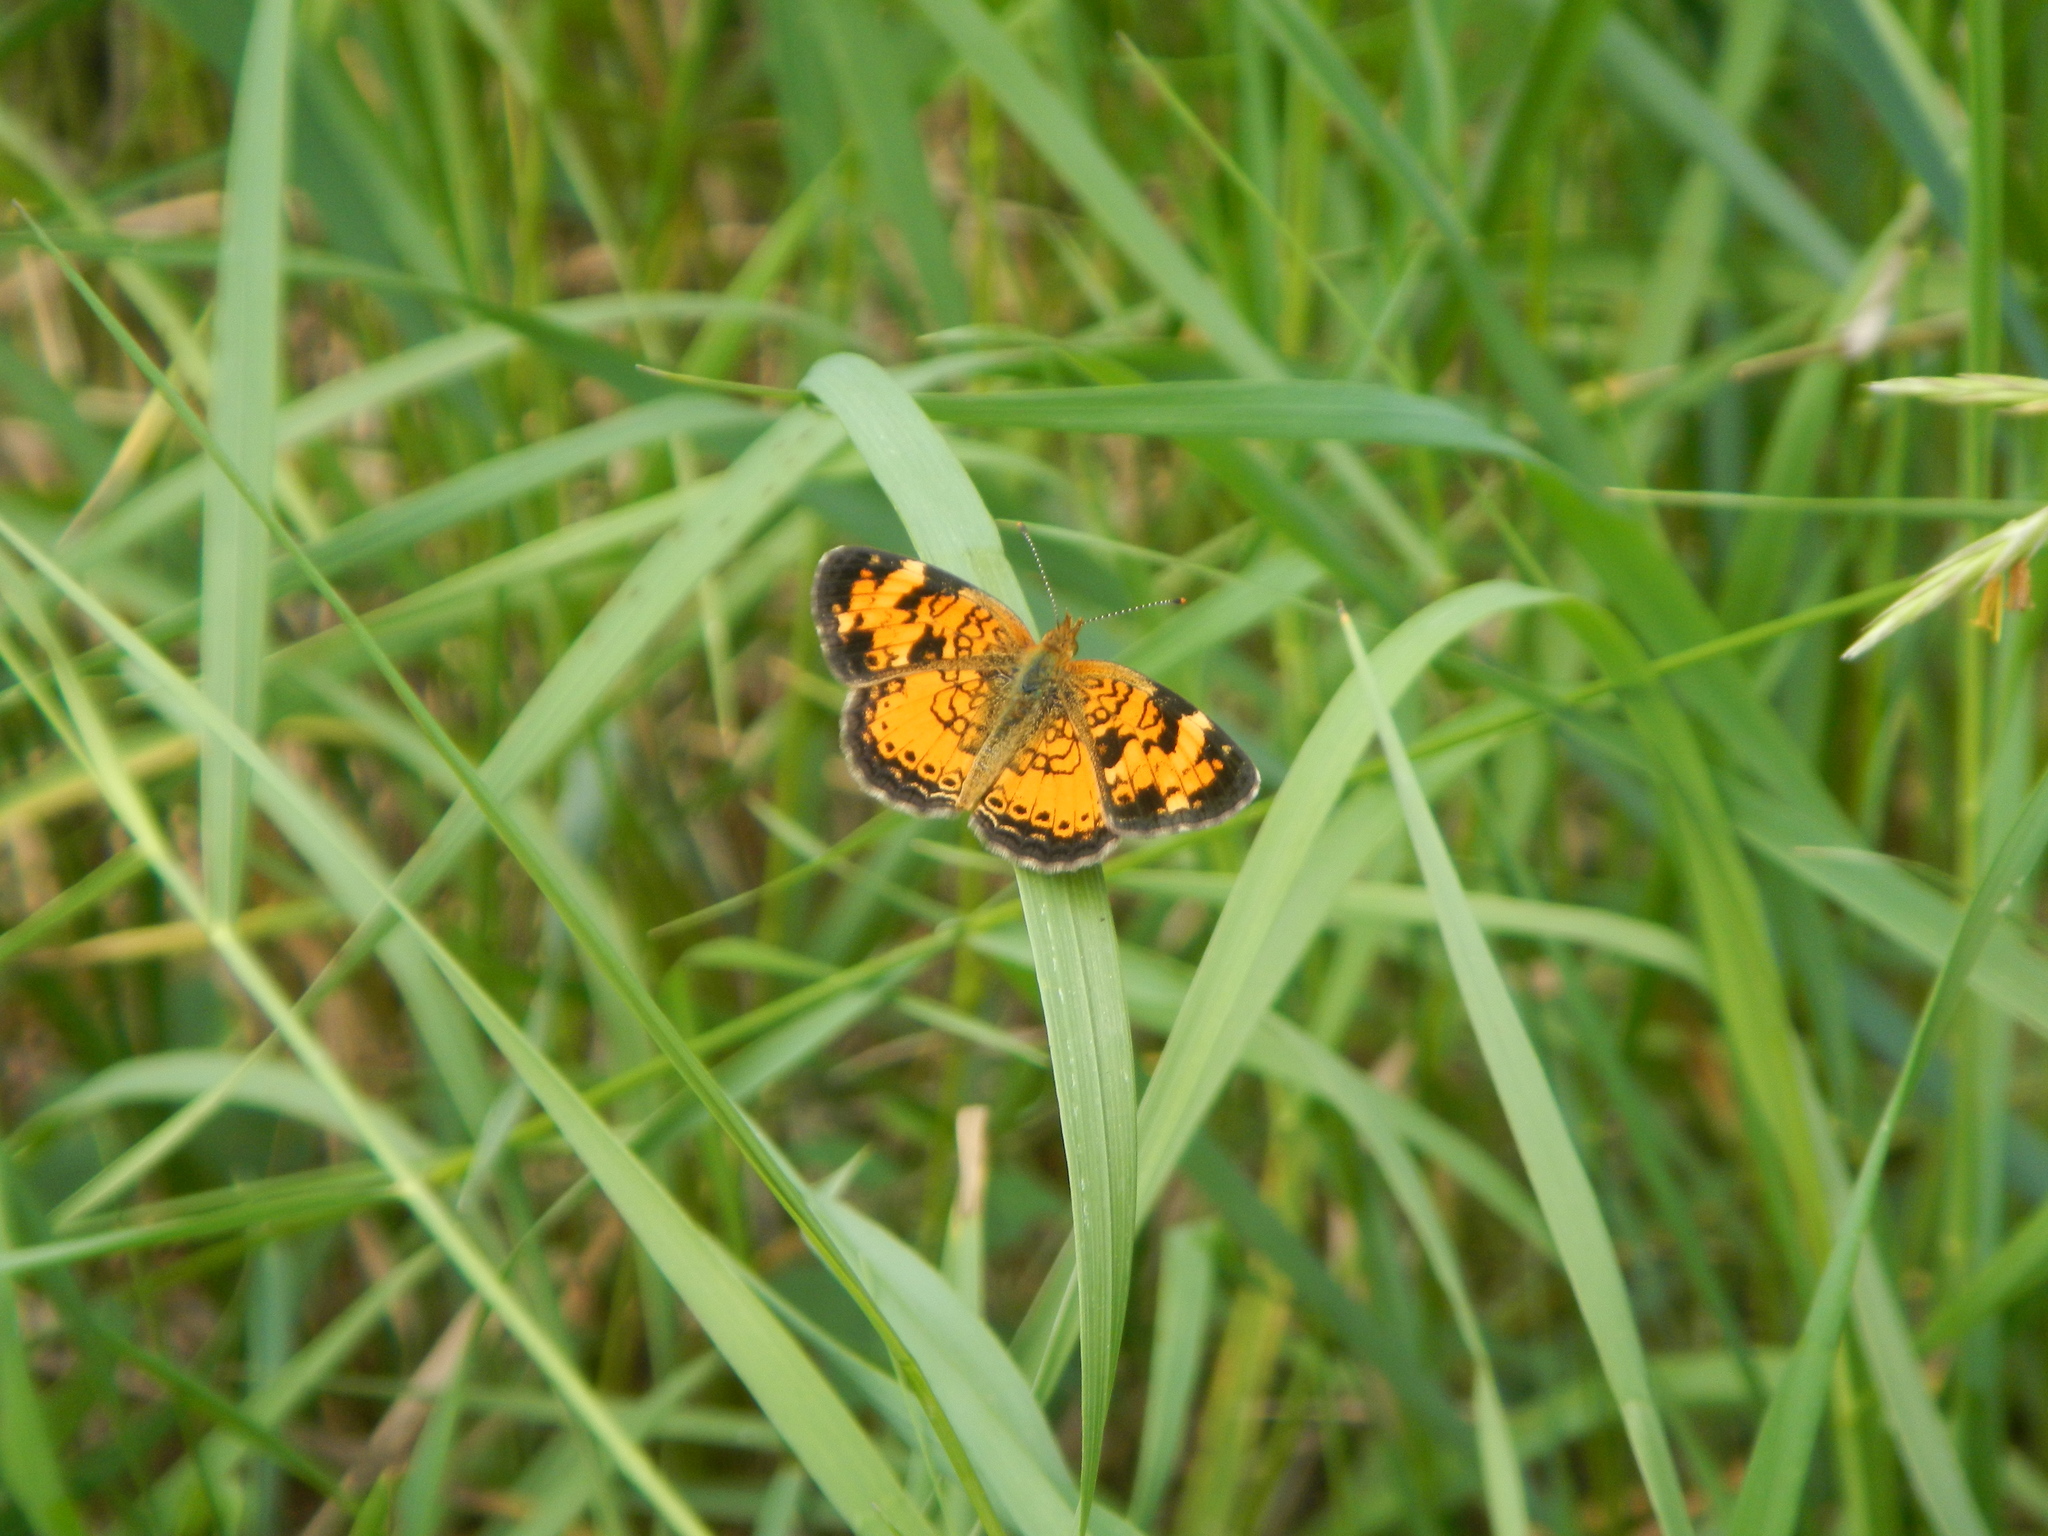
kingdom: Animalia
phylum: Arthropoda
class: Insecta
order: Lepidoptera
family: Nymphalidae
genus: Phyciodes
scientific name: Phyciodes tharos
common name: Pearl crescent
